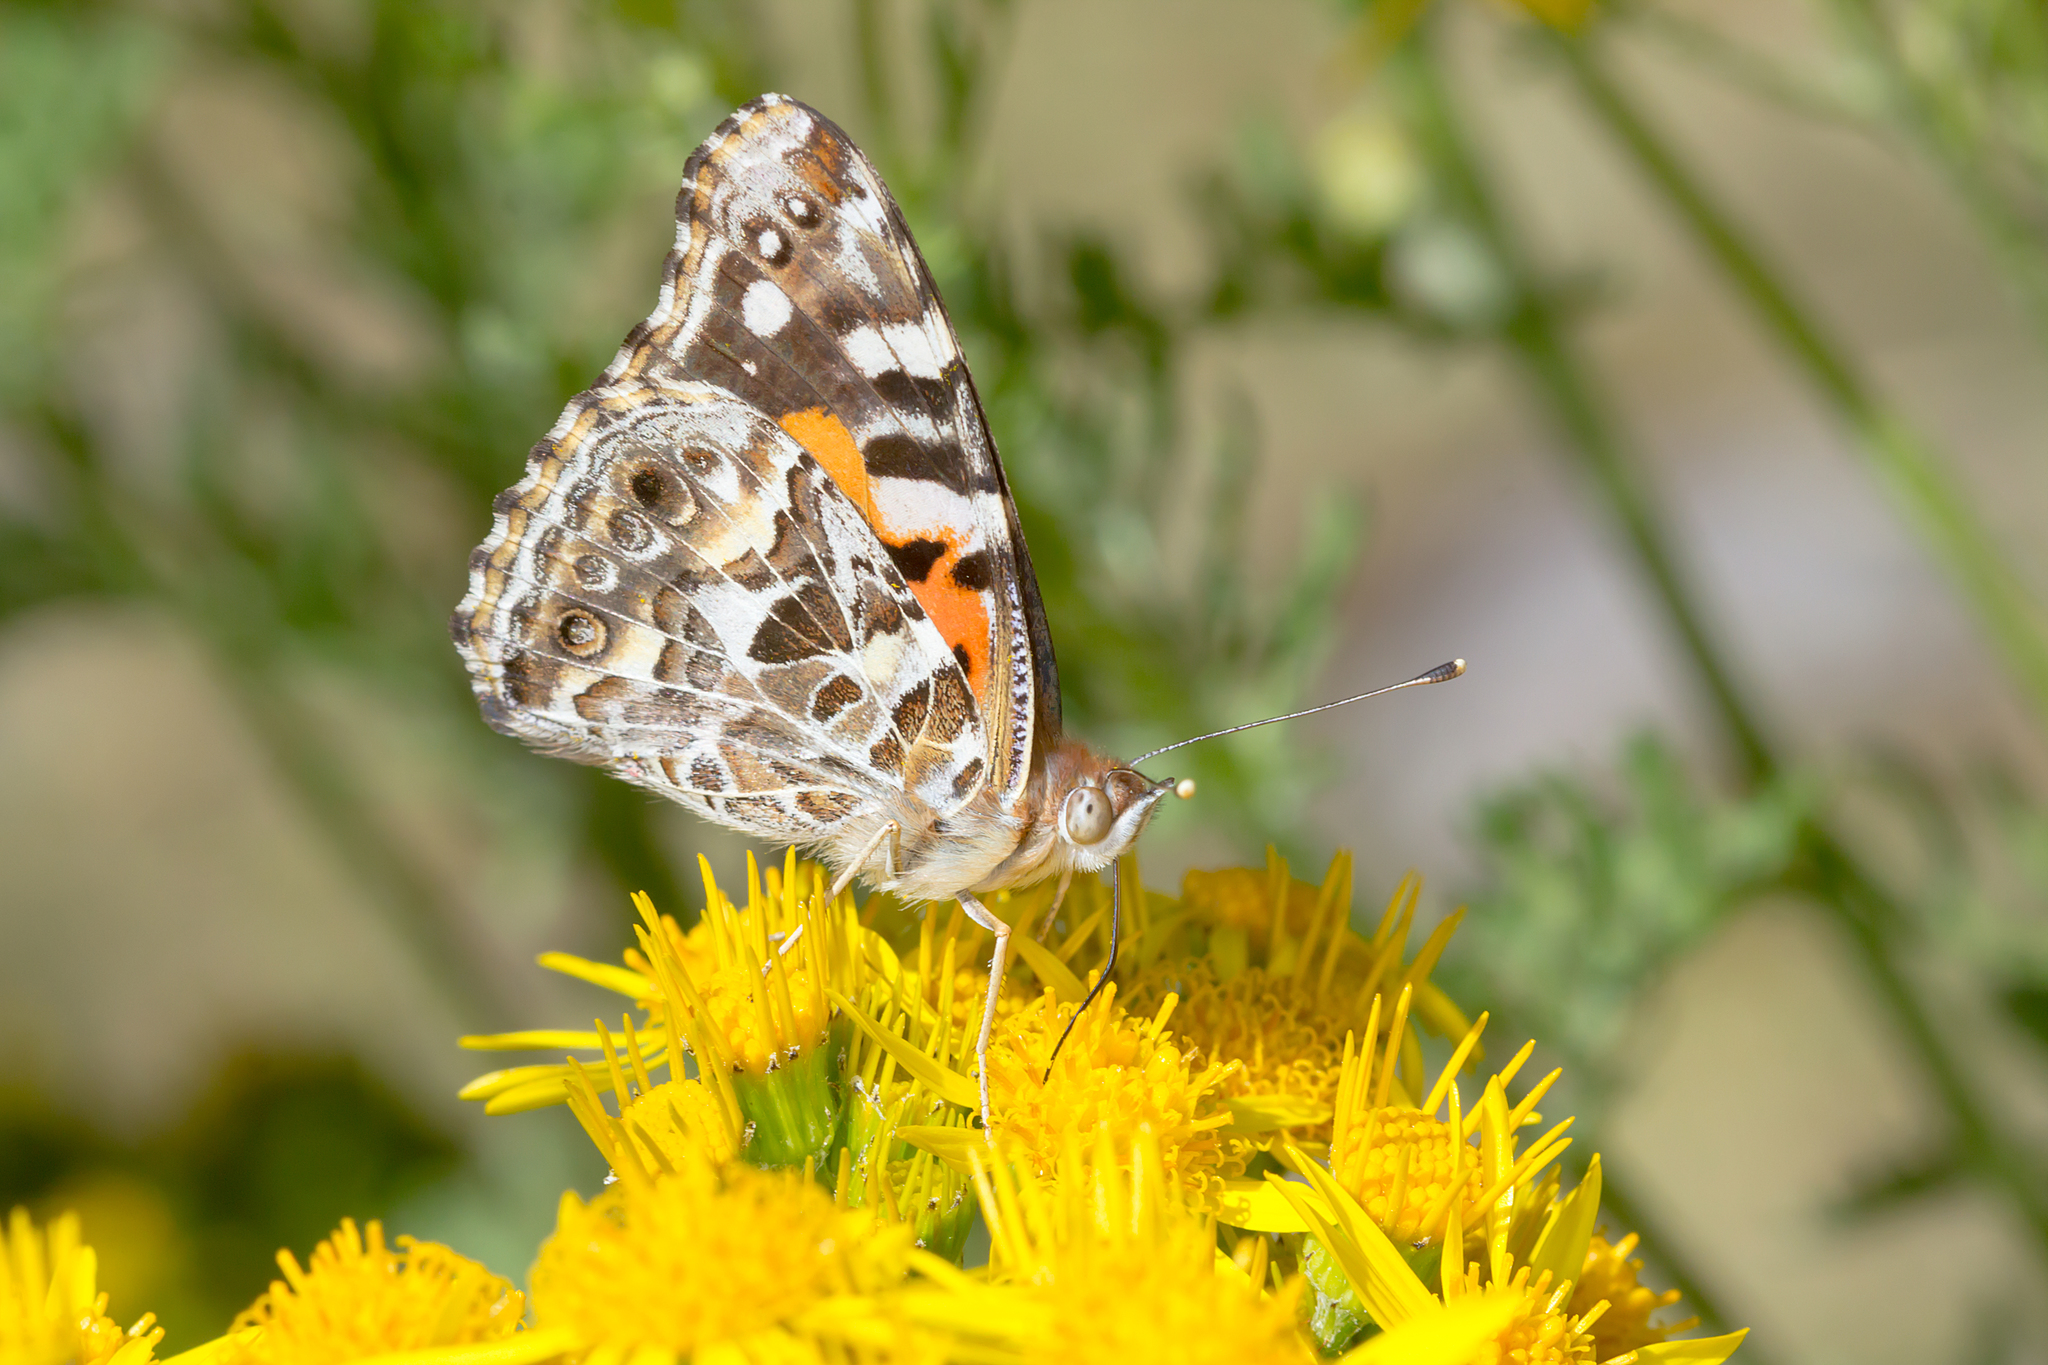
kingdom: Animalia
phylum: Arthropoda
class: Insecta
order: Lepidoptera
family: Nymphalidae
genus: Vanessa
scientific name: Vanessa kershawi
